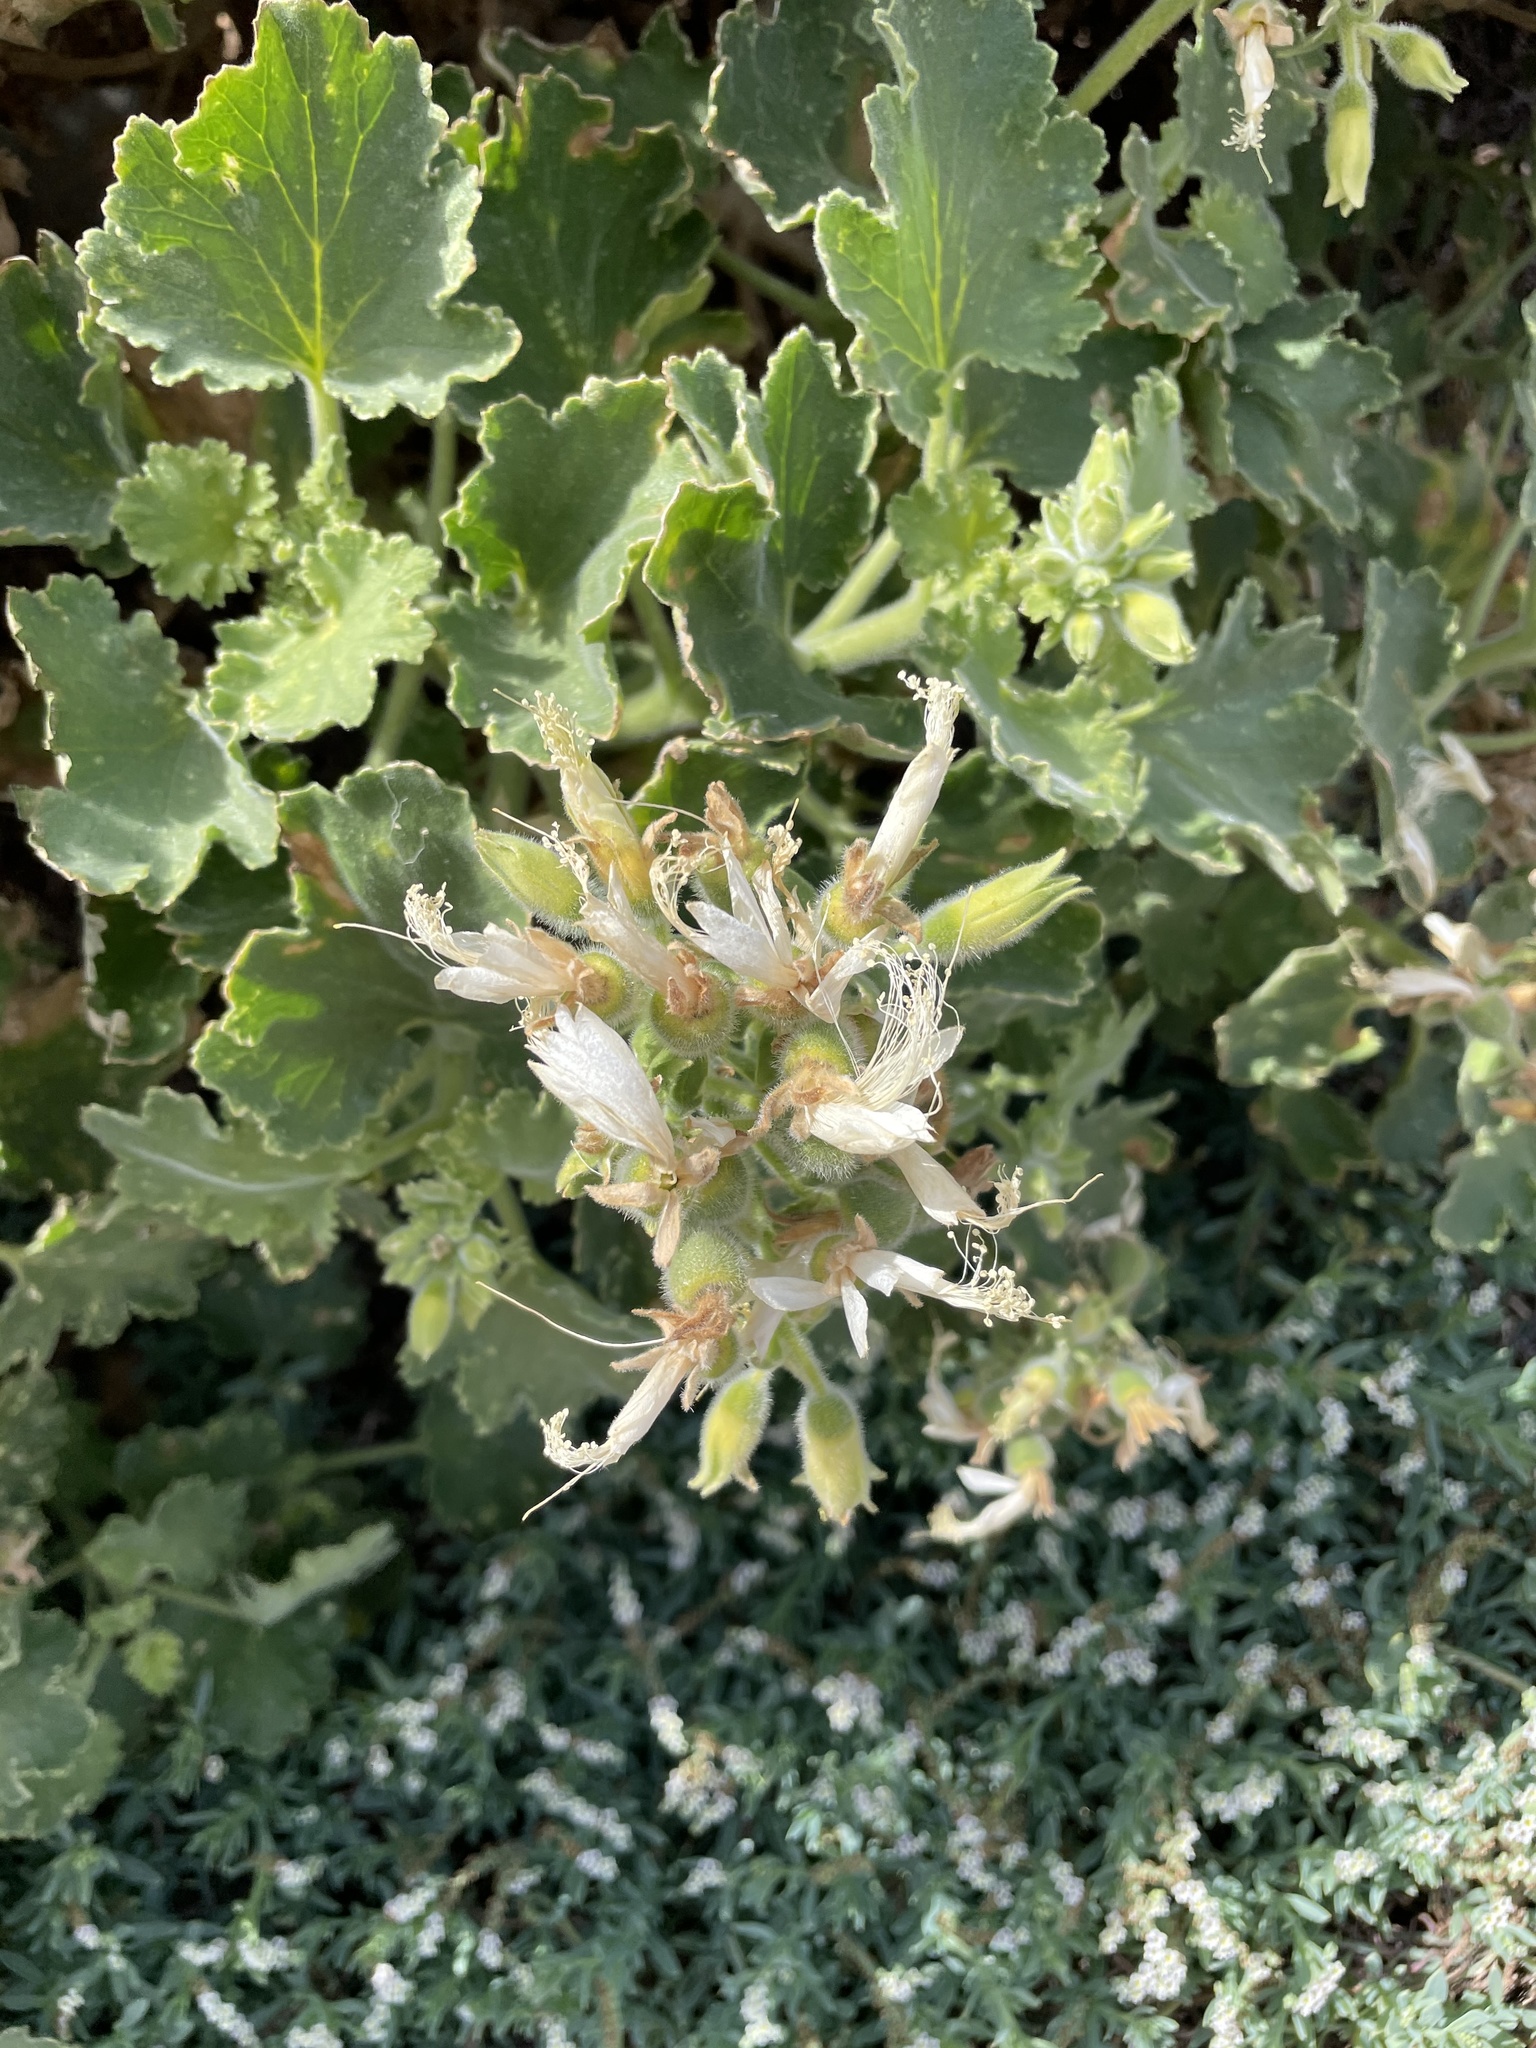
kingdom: Plantae
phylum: Tracheophyta
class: Magnoliopsida
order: Cornales
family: Loasaceae
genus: Eucnide
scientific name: Eucnide cordata
